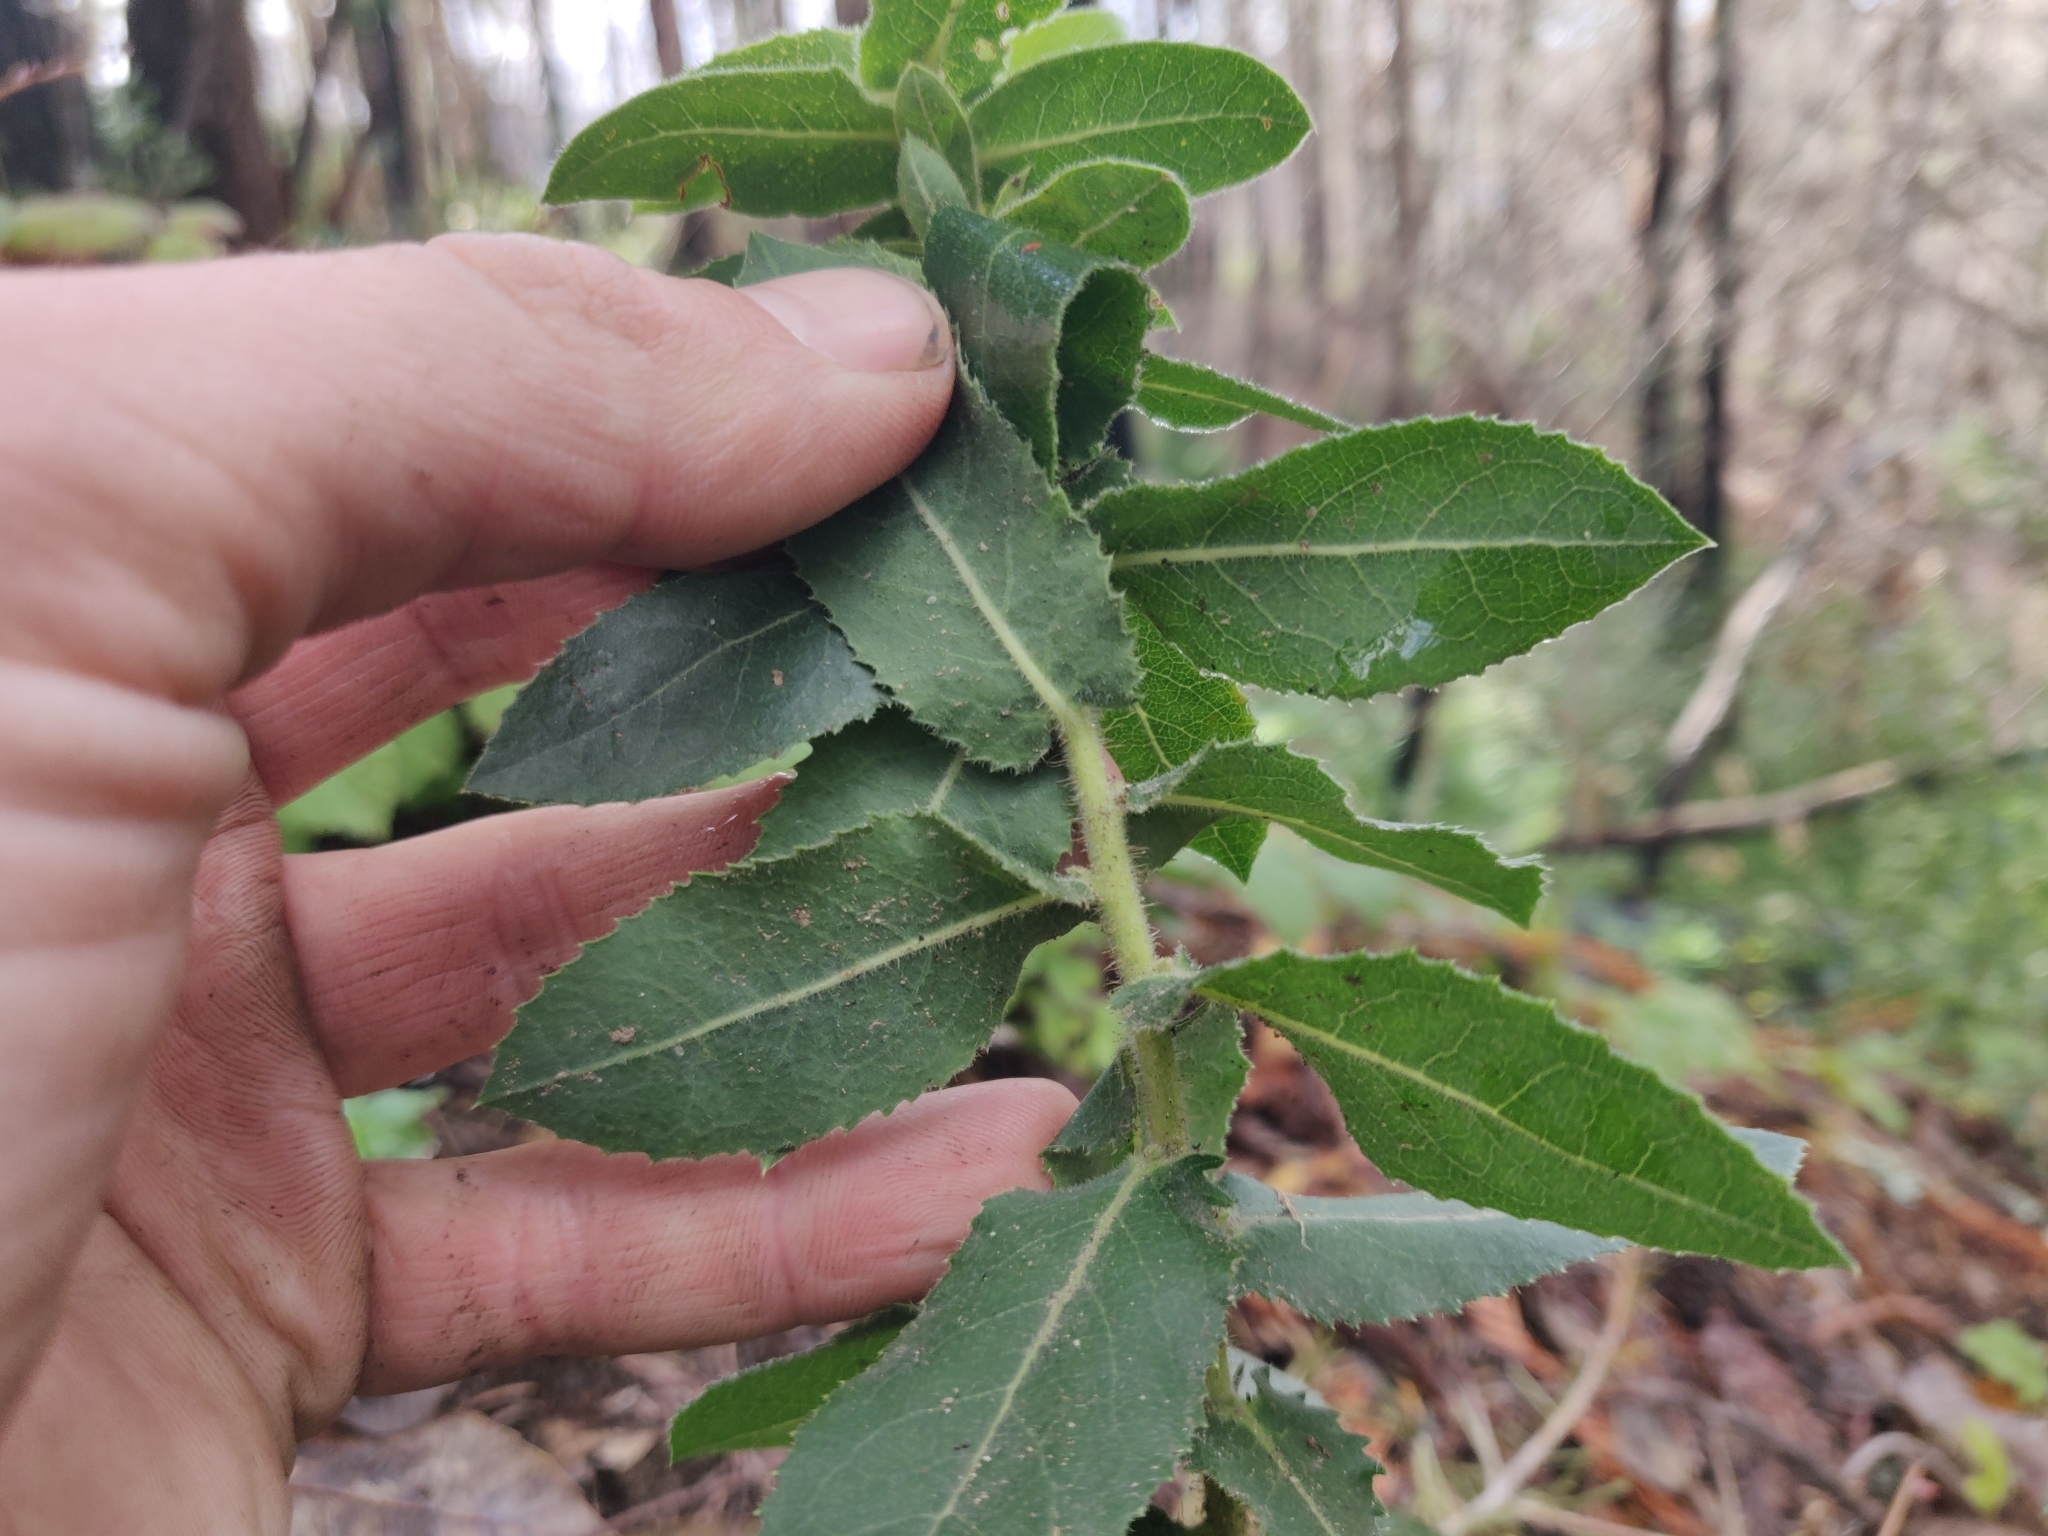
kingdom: Plantae
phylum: Tracheophyta
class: Magnoliopsida
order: Ericales
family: Ericaceae
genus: Arctostaphylos
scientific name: Arctostaphylos andersonii
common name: Santa cruz manzanita
